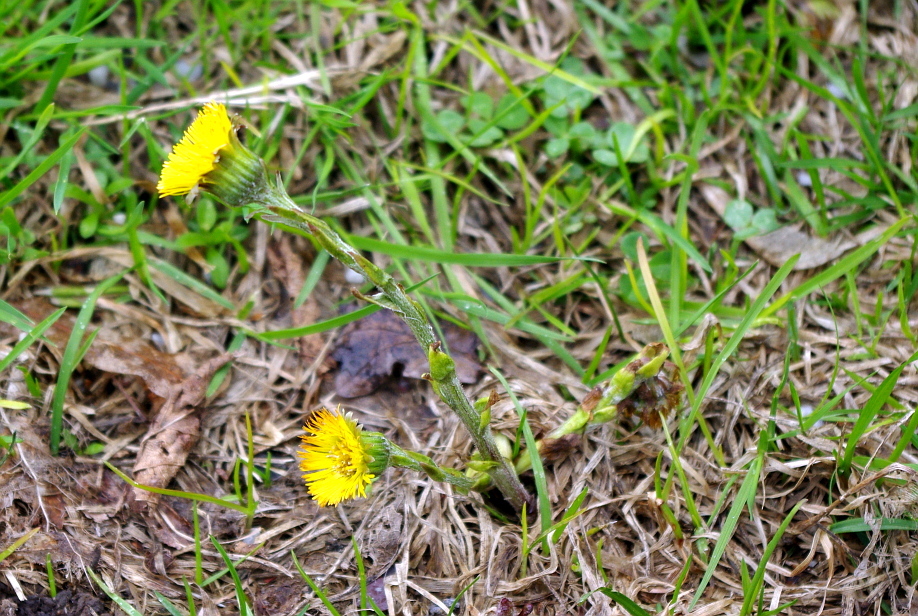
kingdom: Plantae
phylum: Tracheophyta
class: Magnoliopsida
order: Asterales
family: Asteraceae
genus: Tussilago
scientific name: Tussilago farfara
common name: Coltsfoot
